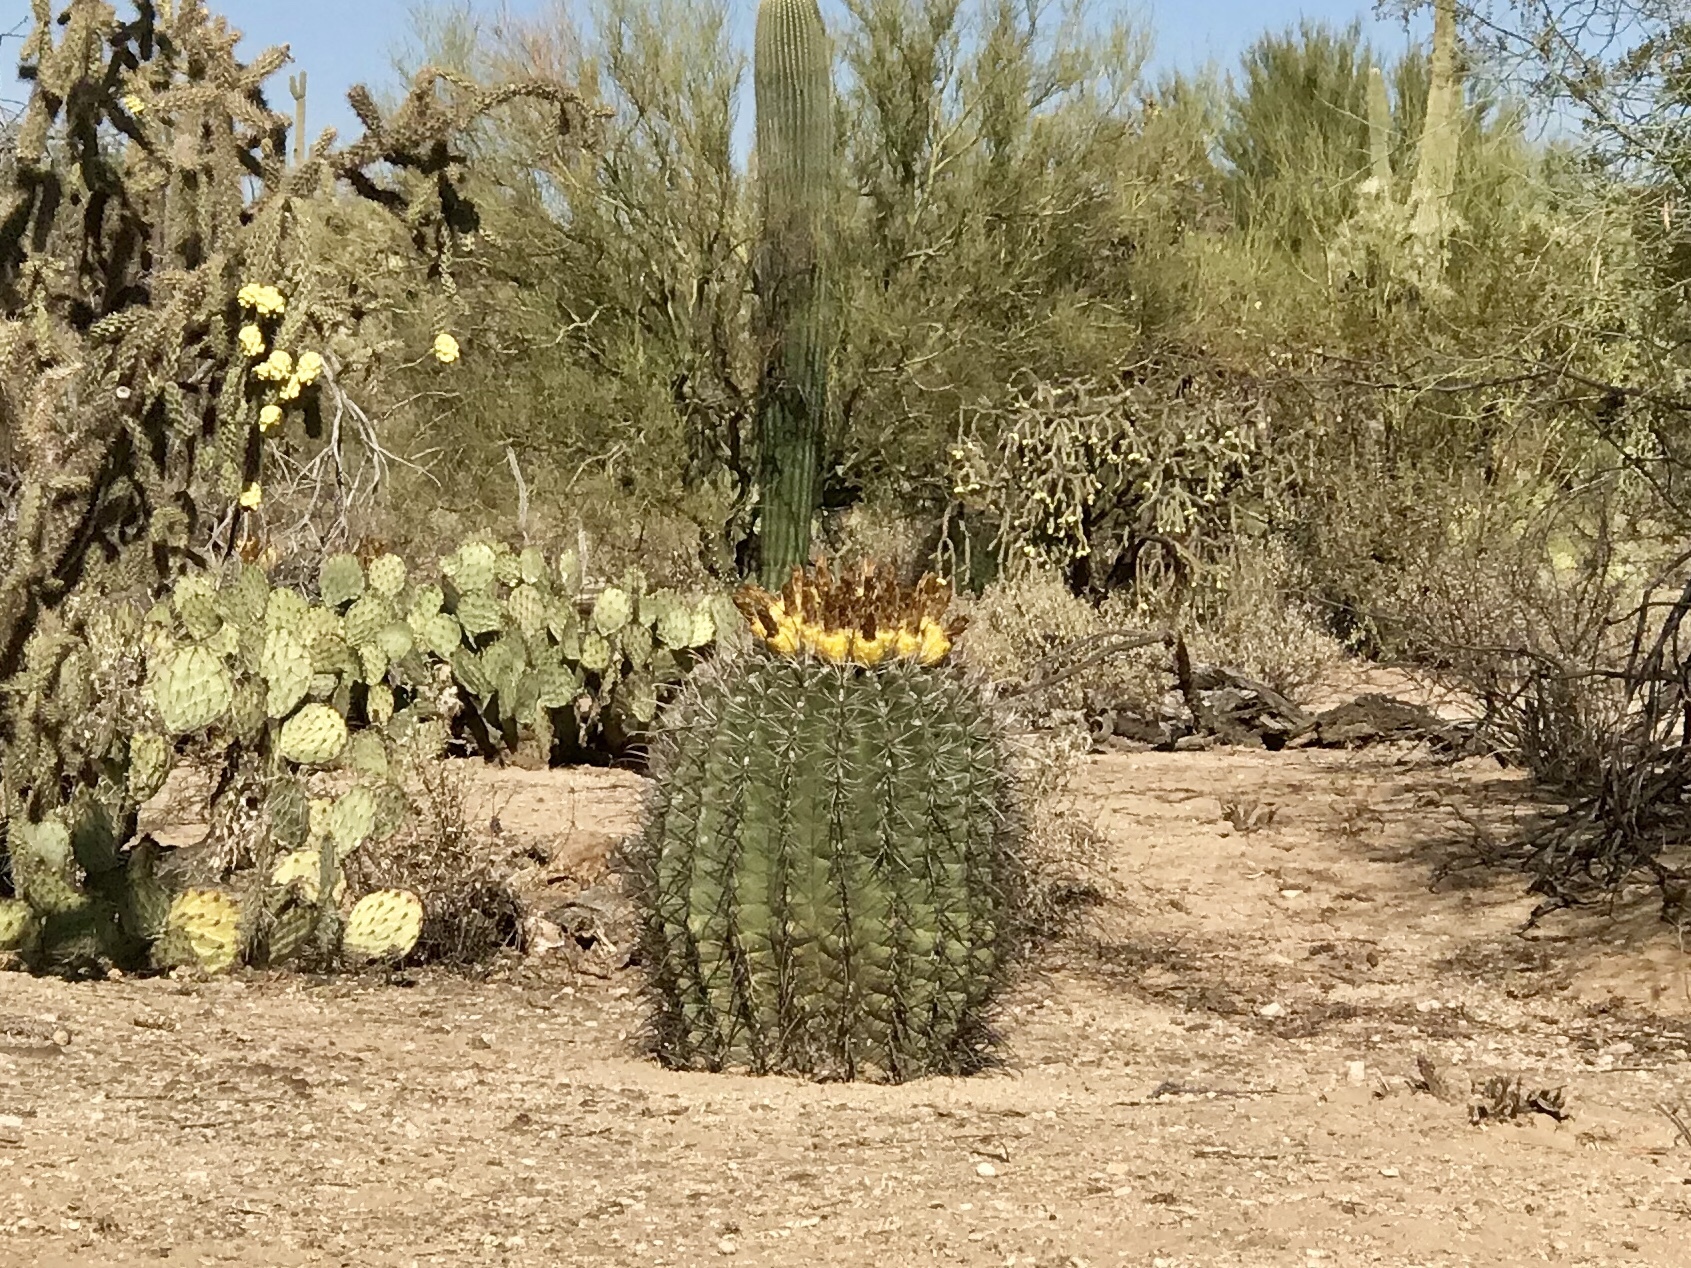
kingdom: Plantae
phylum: Tracheophyta
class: Magnoliopsida
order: Caryophyllales
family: Cactaceae
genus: Ferocactus
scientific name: Ferocactus wislizeni
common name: Candy barrel cactus
